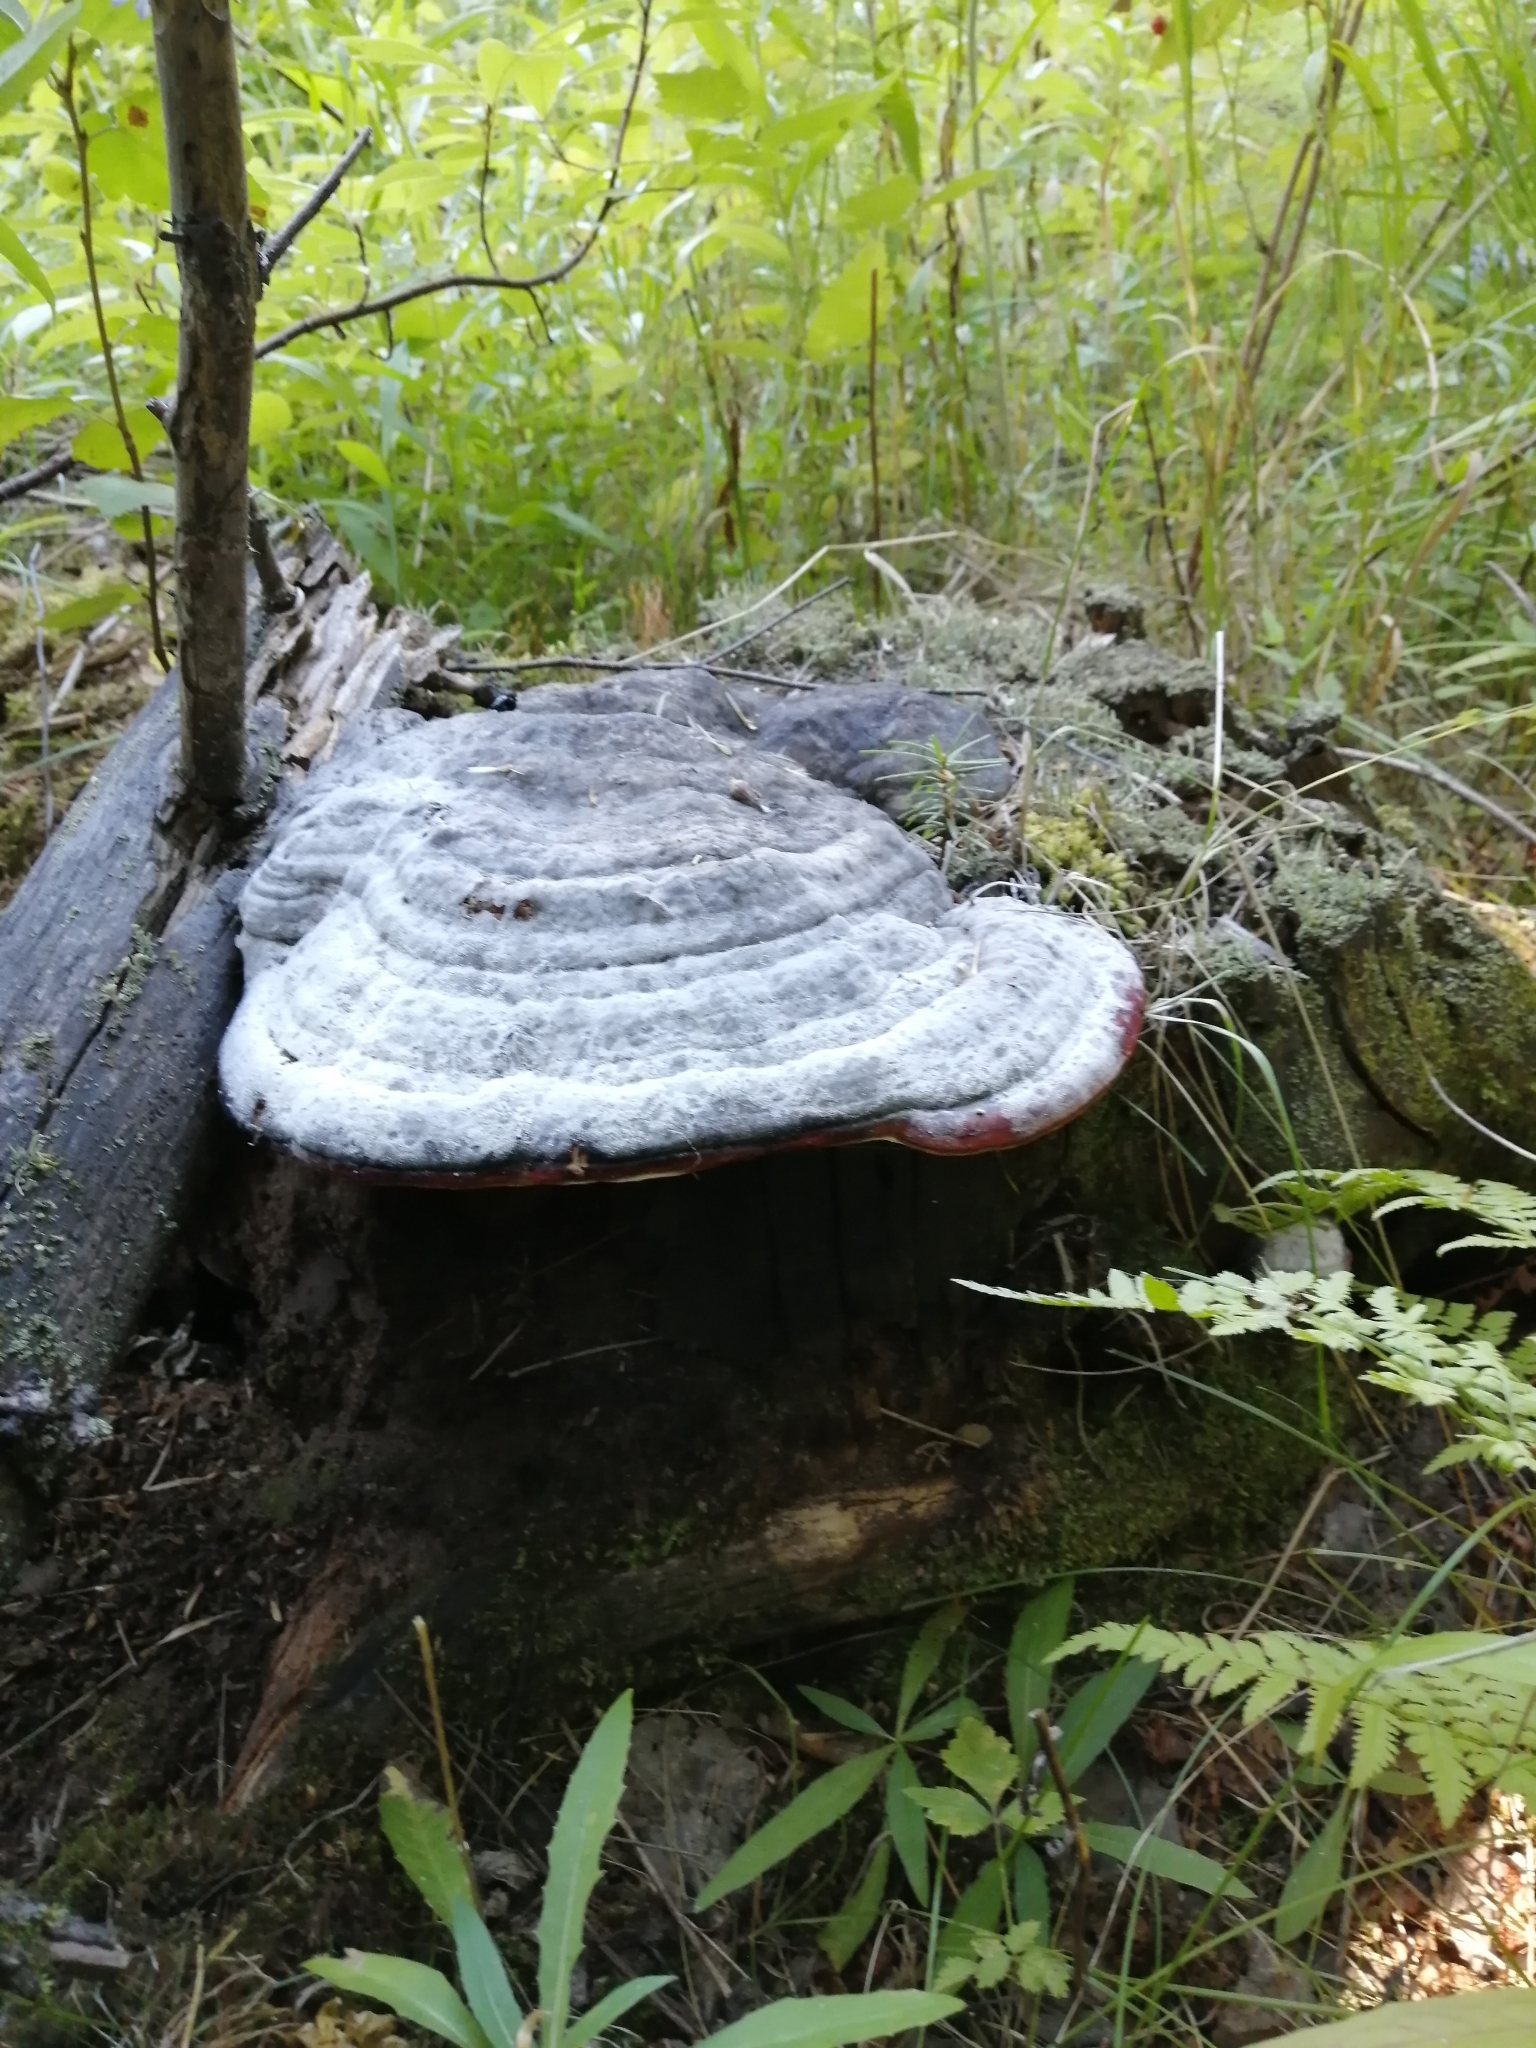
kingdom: Fungi
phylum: Basidiomycota
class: Agaricomycetes
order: Polyporales
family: Fomitopsidaceae
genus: Fomitopsis
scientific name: Fomitopsis pinicola
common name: Red-belted bracket
